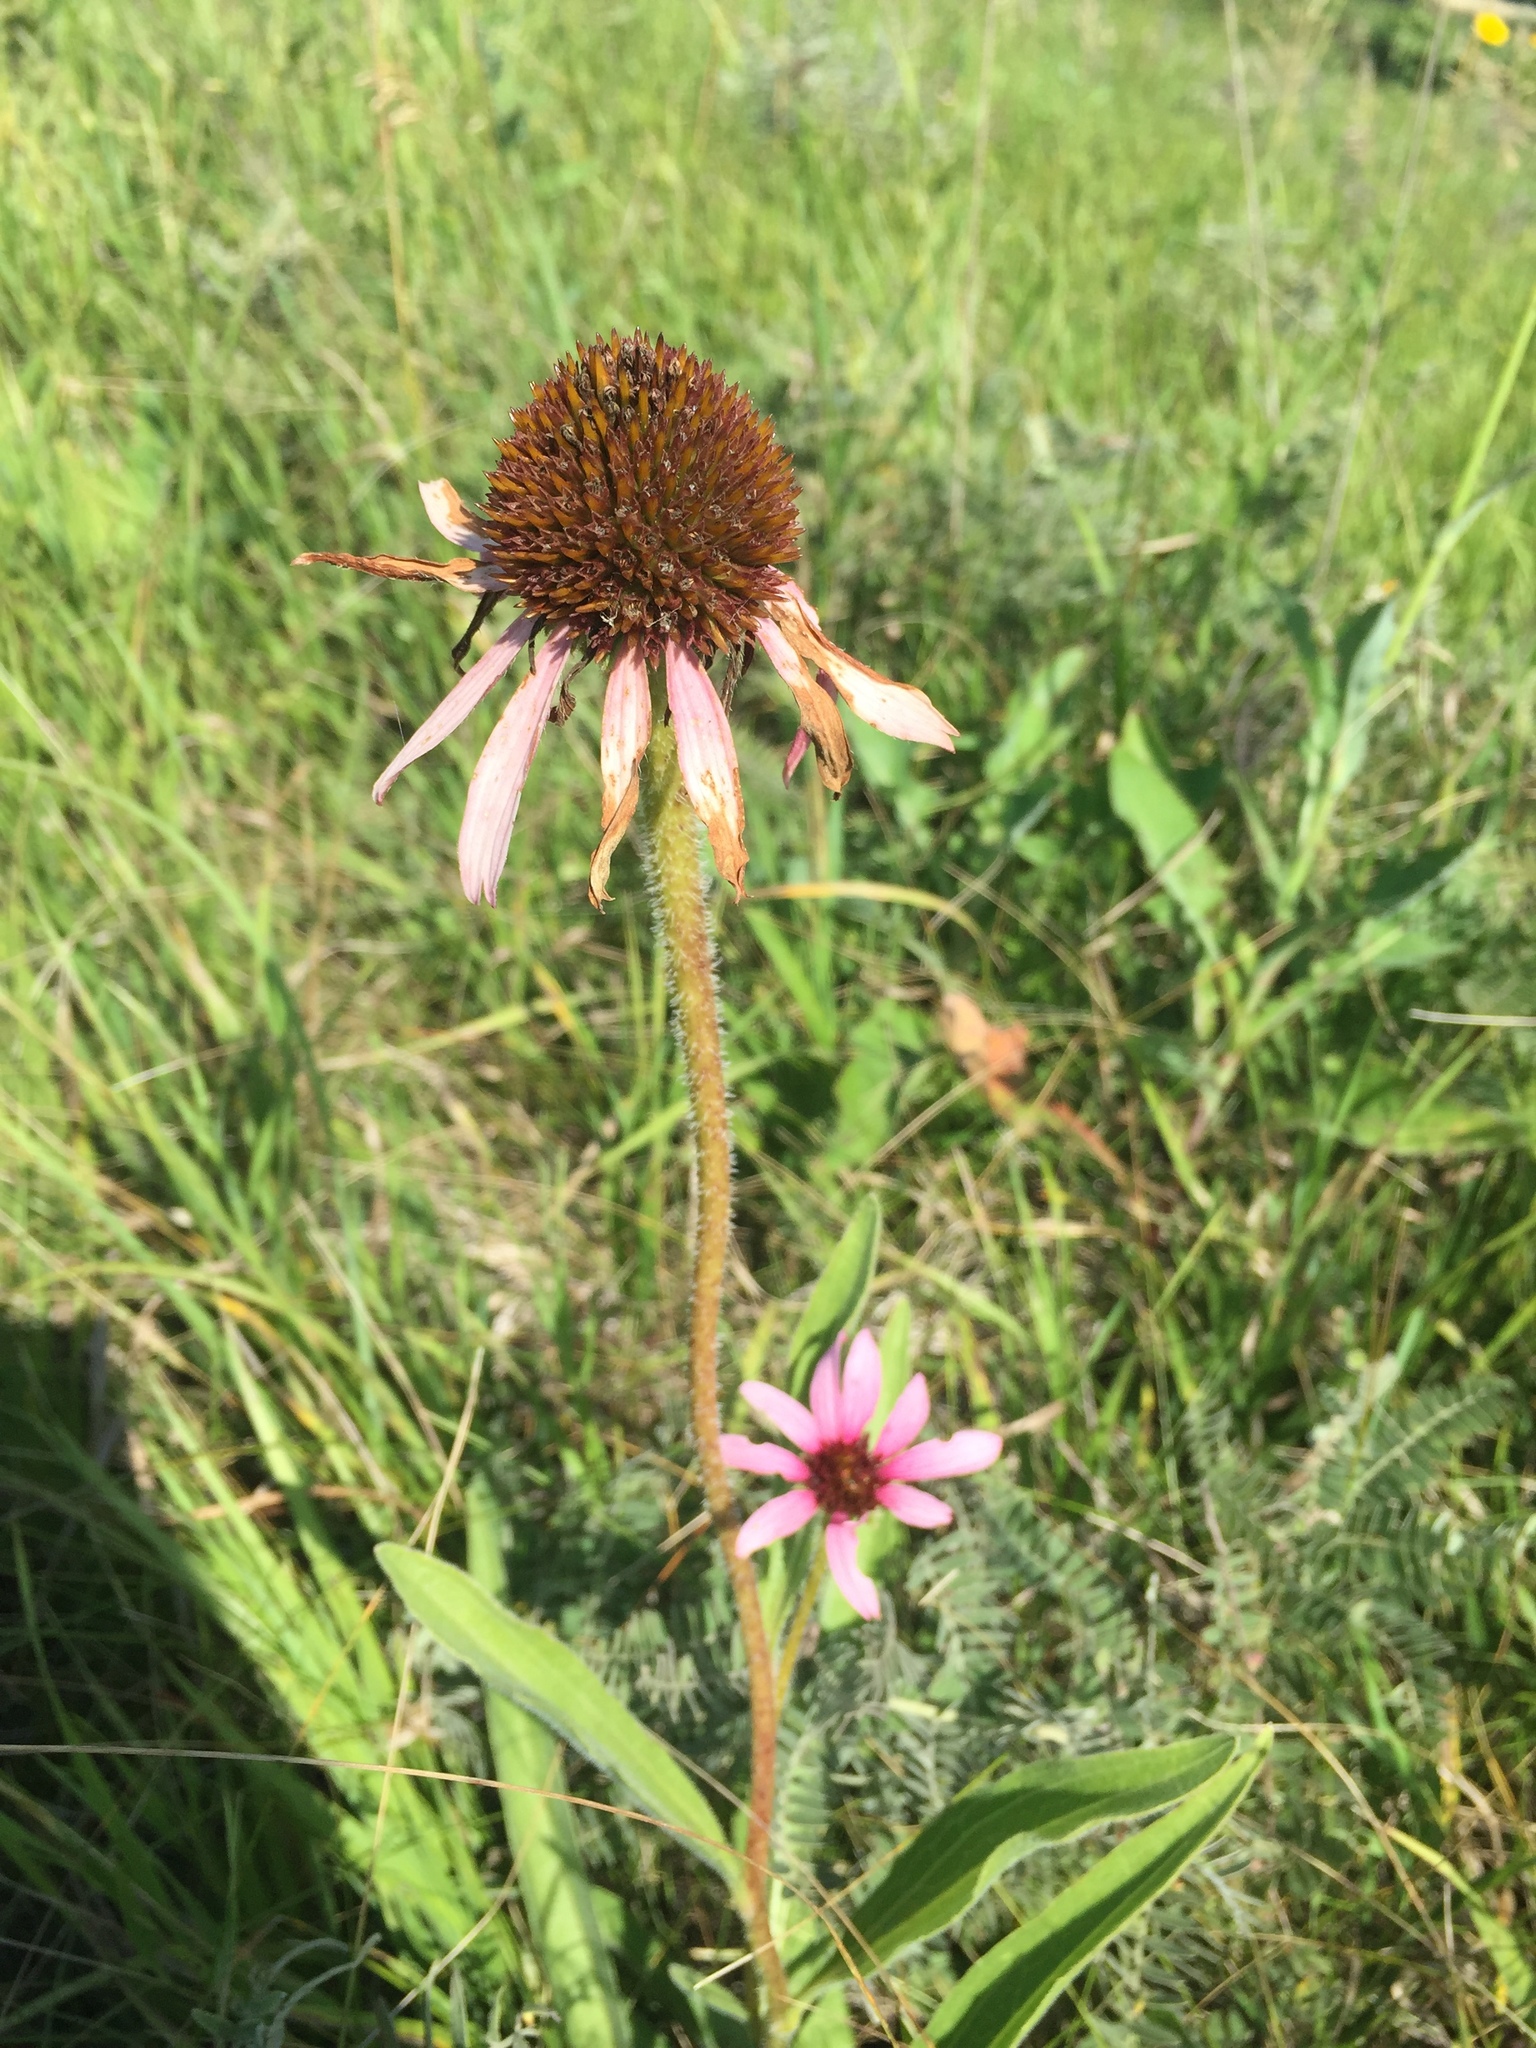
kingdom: Plantae
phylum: Tracheophyta
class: Magnoliopsida
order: Asterales
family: Asteraceae
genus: Echinacea
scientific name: Echinacea angustifolia
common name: Black-sampson echinacea
